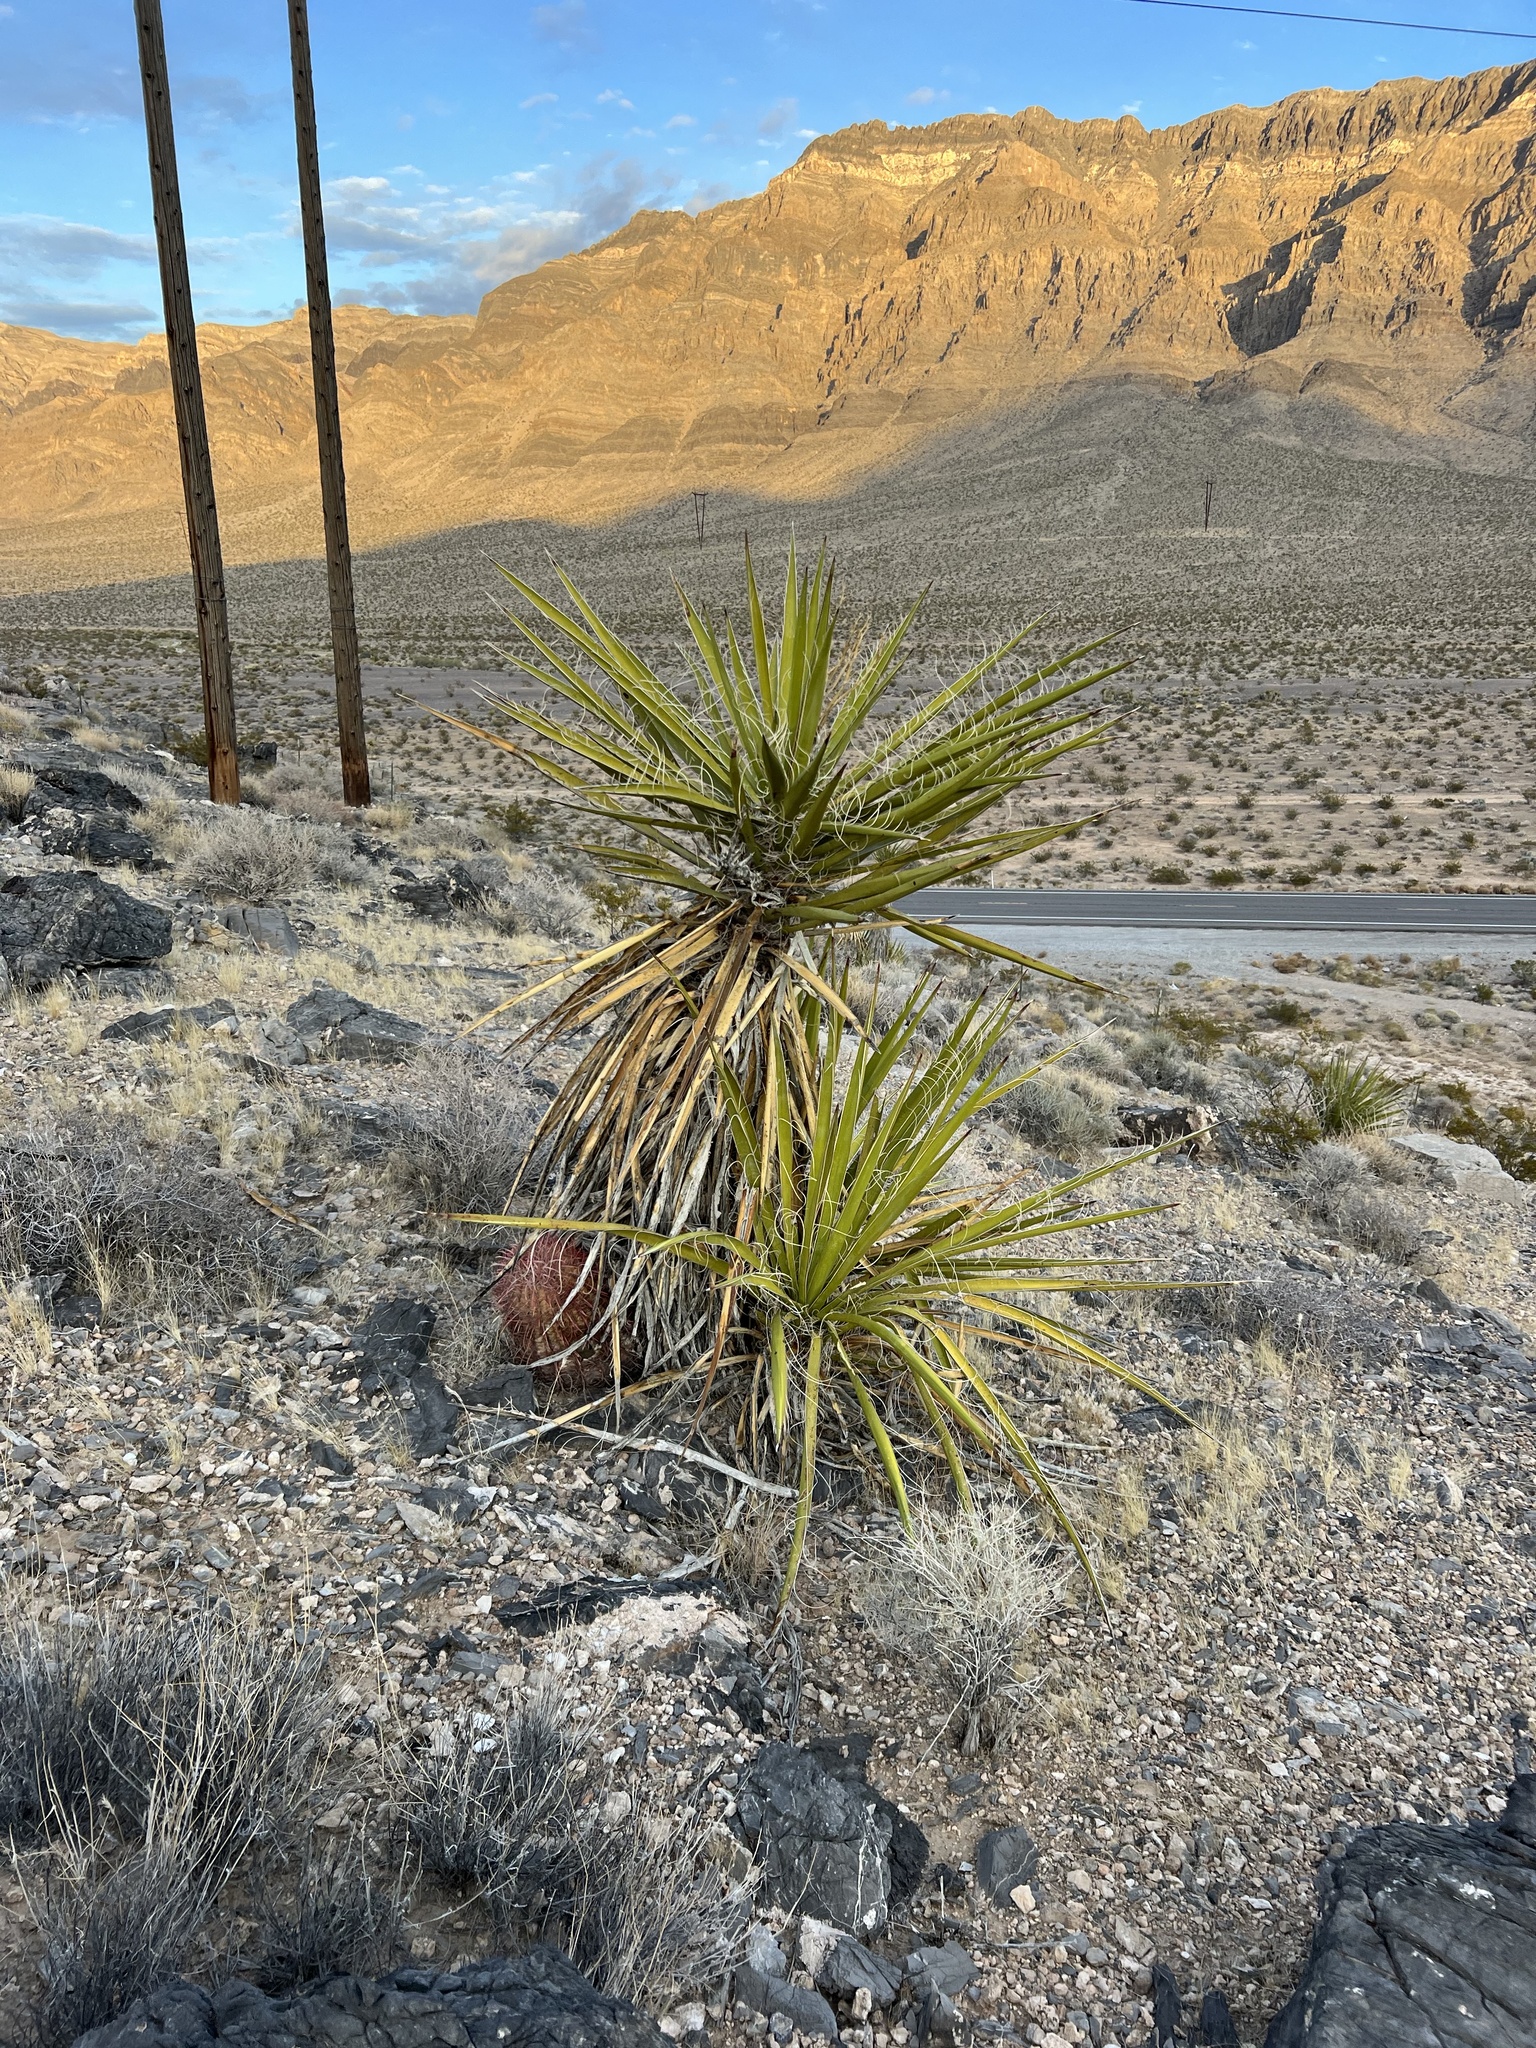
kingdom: Plantae
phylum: Tracheophyta
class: Liliopsida
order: Asparagales
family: Asparagaceae
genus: Yucca
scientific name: Yucca schidigera
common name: Mojave yucca
